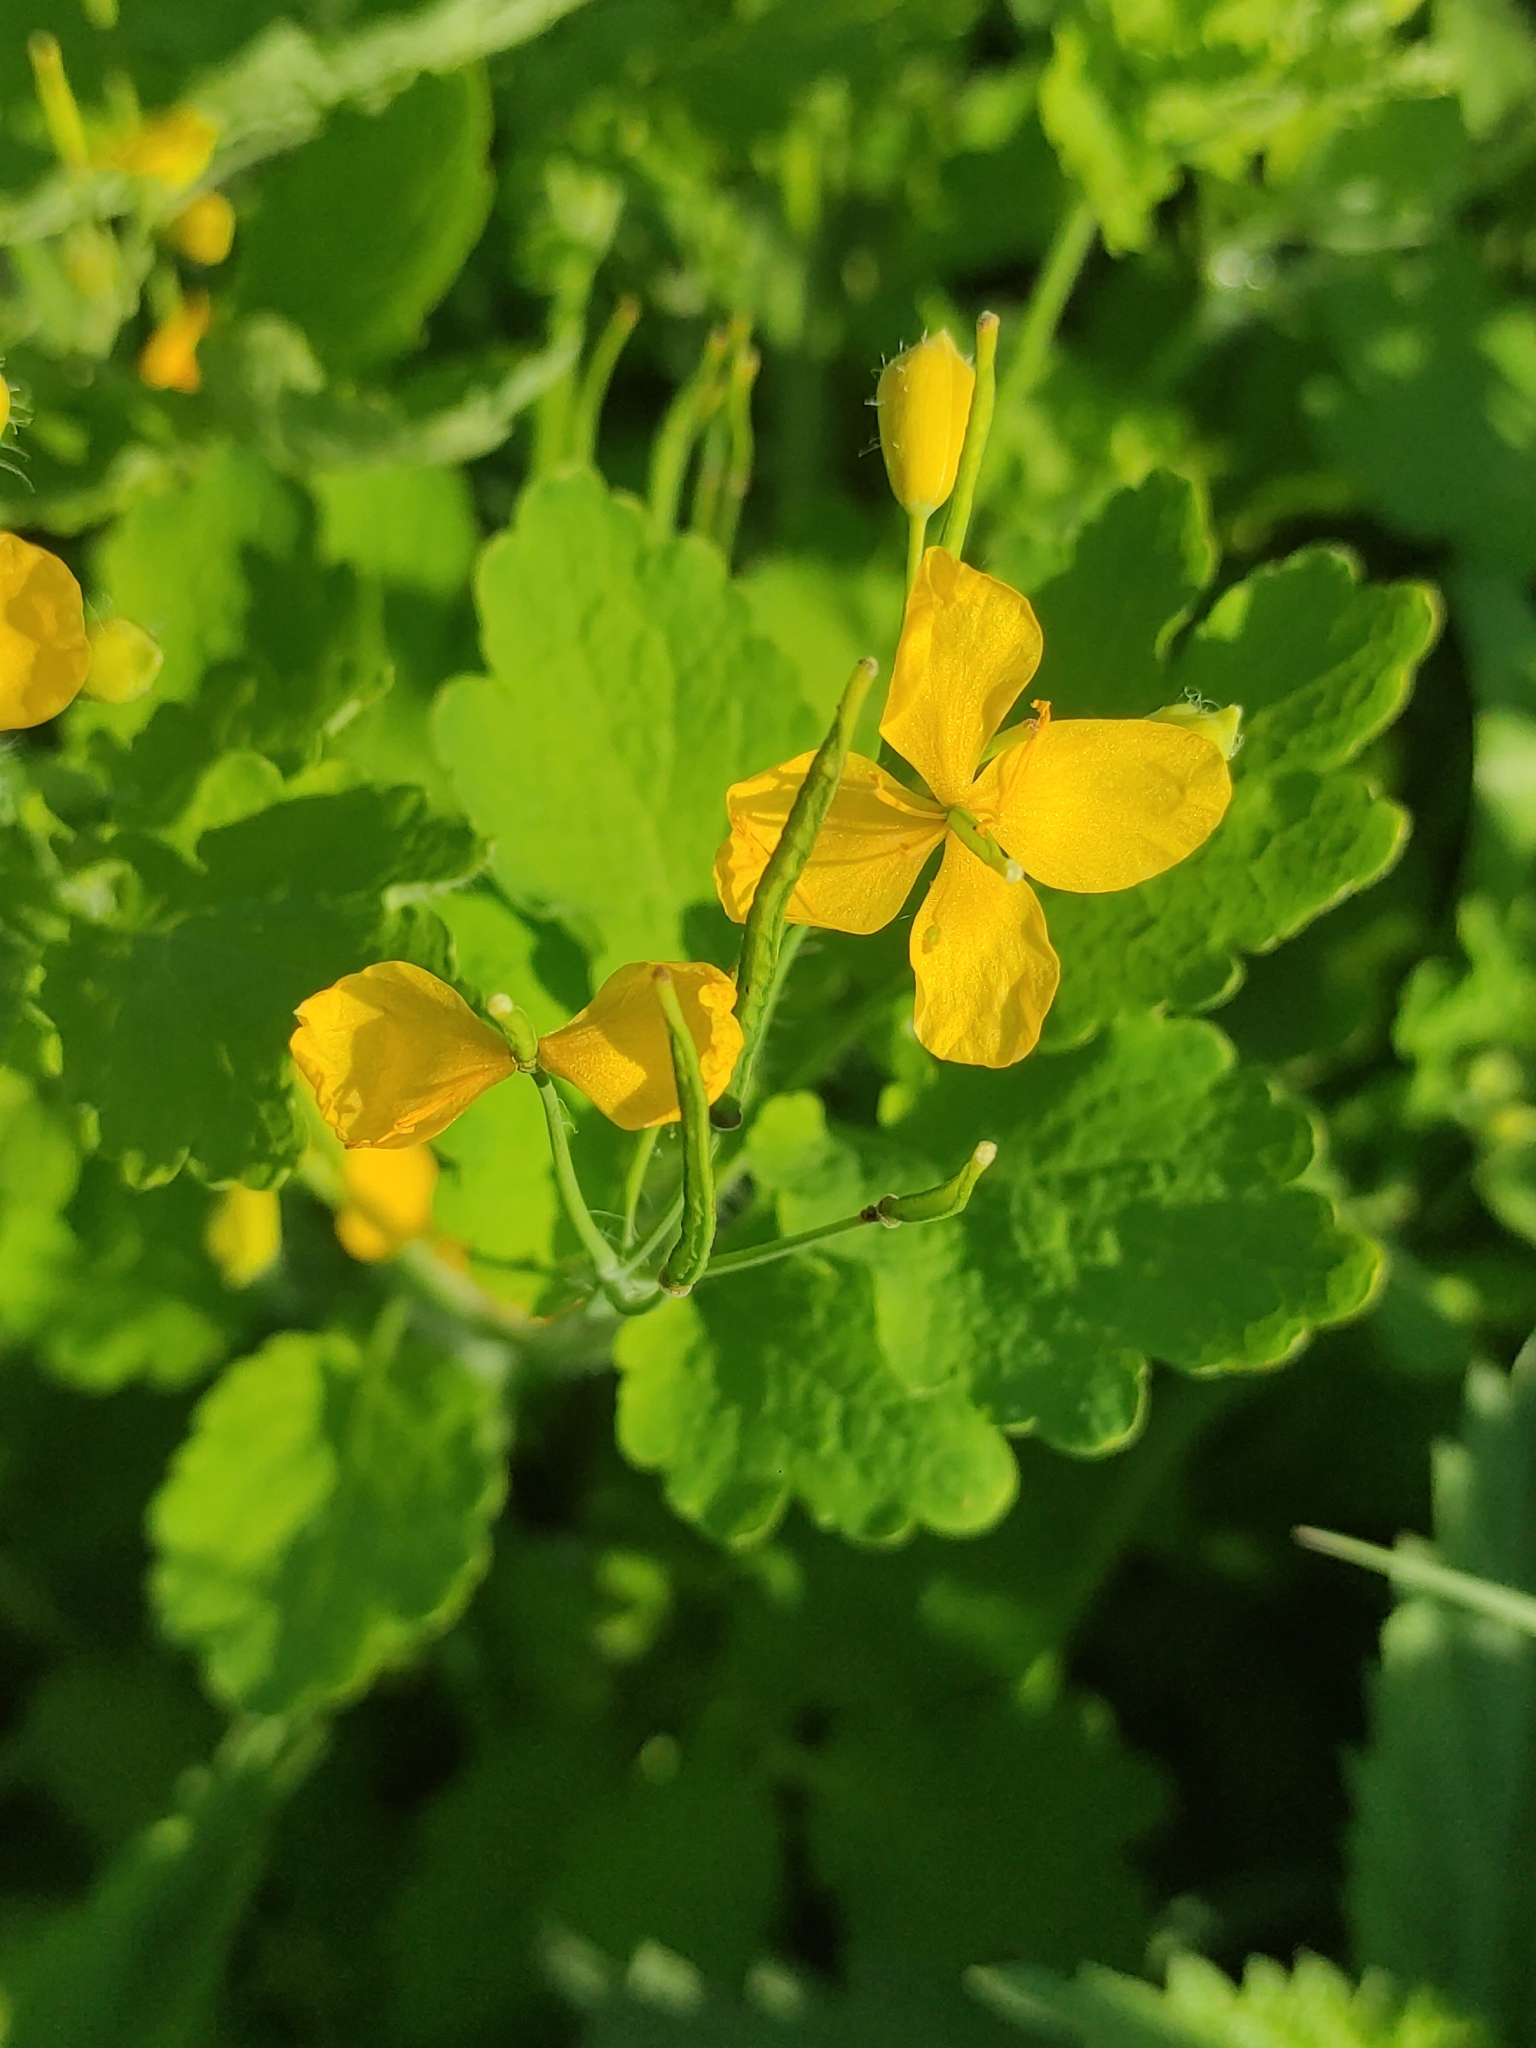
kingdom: Plantae
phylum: Tracheophyta
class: Magnoliopsida
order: Ranunculales
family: Papaveraceae
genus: Chelidonium
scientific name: Chelidonium majus
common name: Greater celandine
